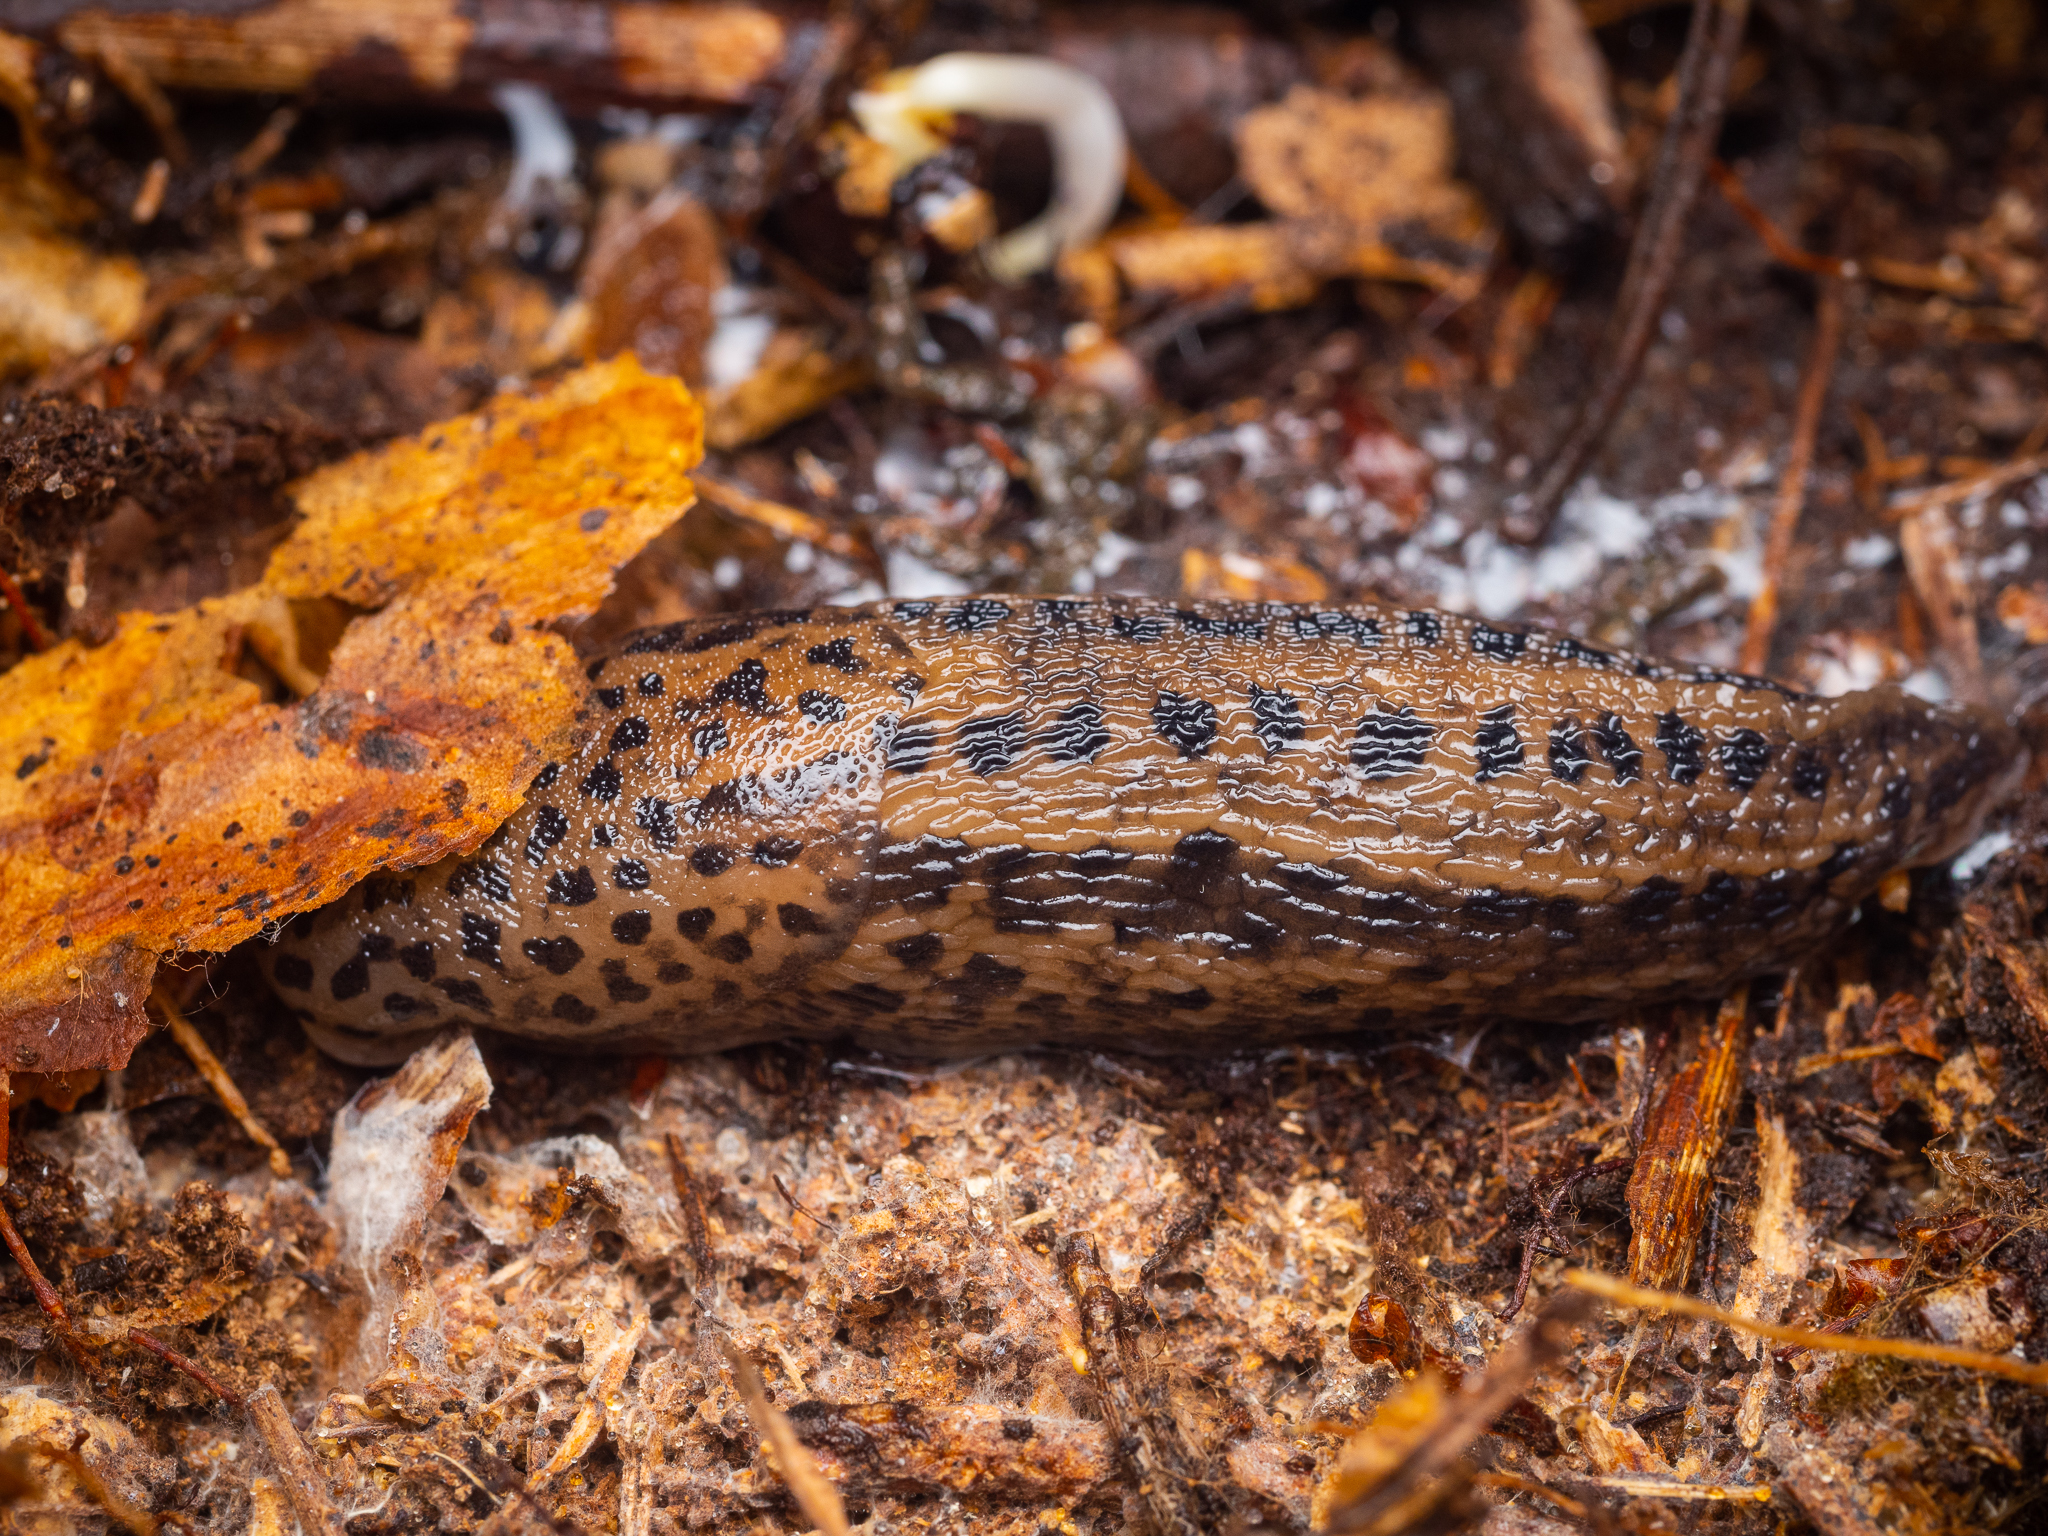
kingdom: Animalia
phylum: Mollusca
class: Gastropoda
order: Stylommatophora
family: Limacidae
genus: Limax
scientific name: Limax maximus
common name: Great grey slug
